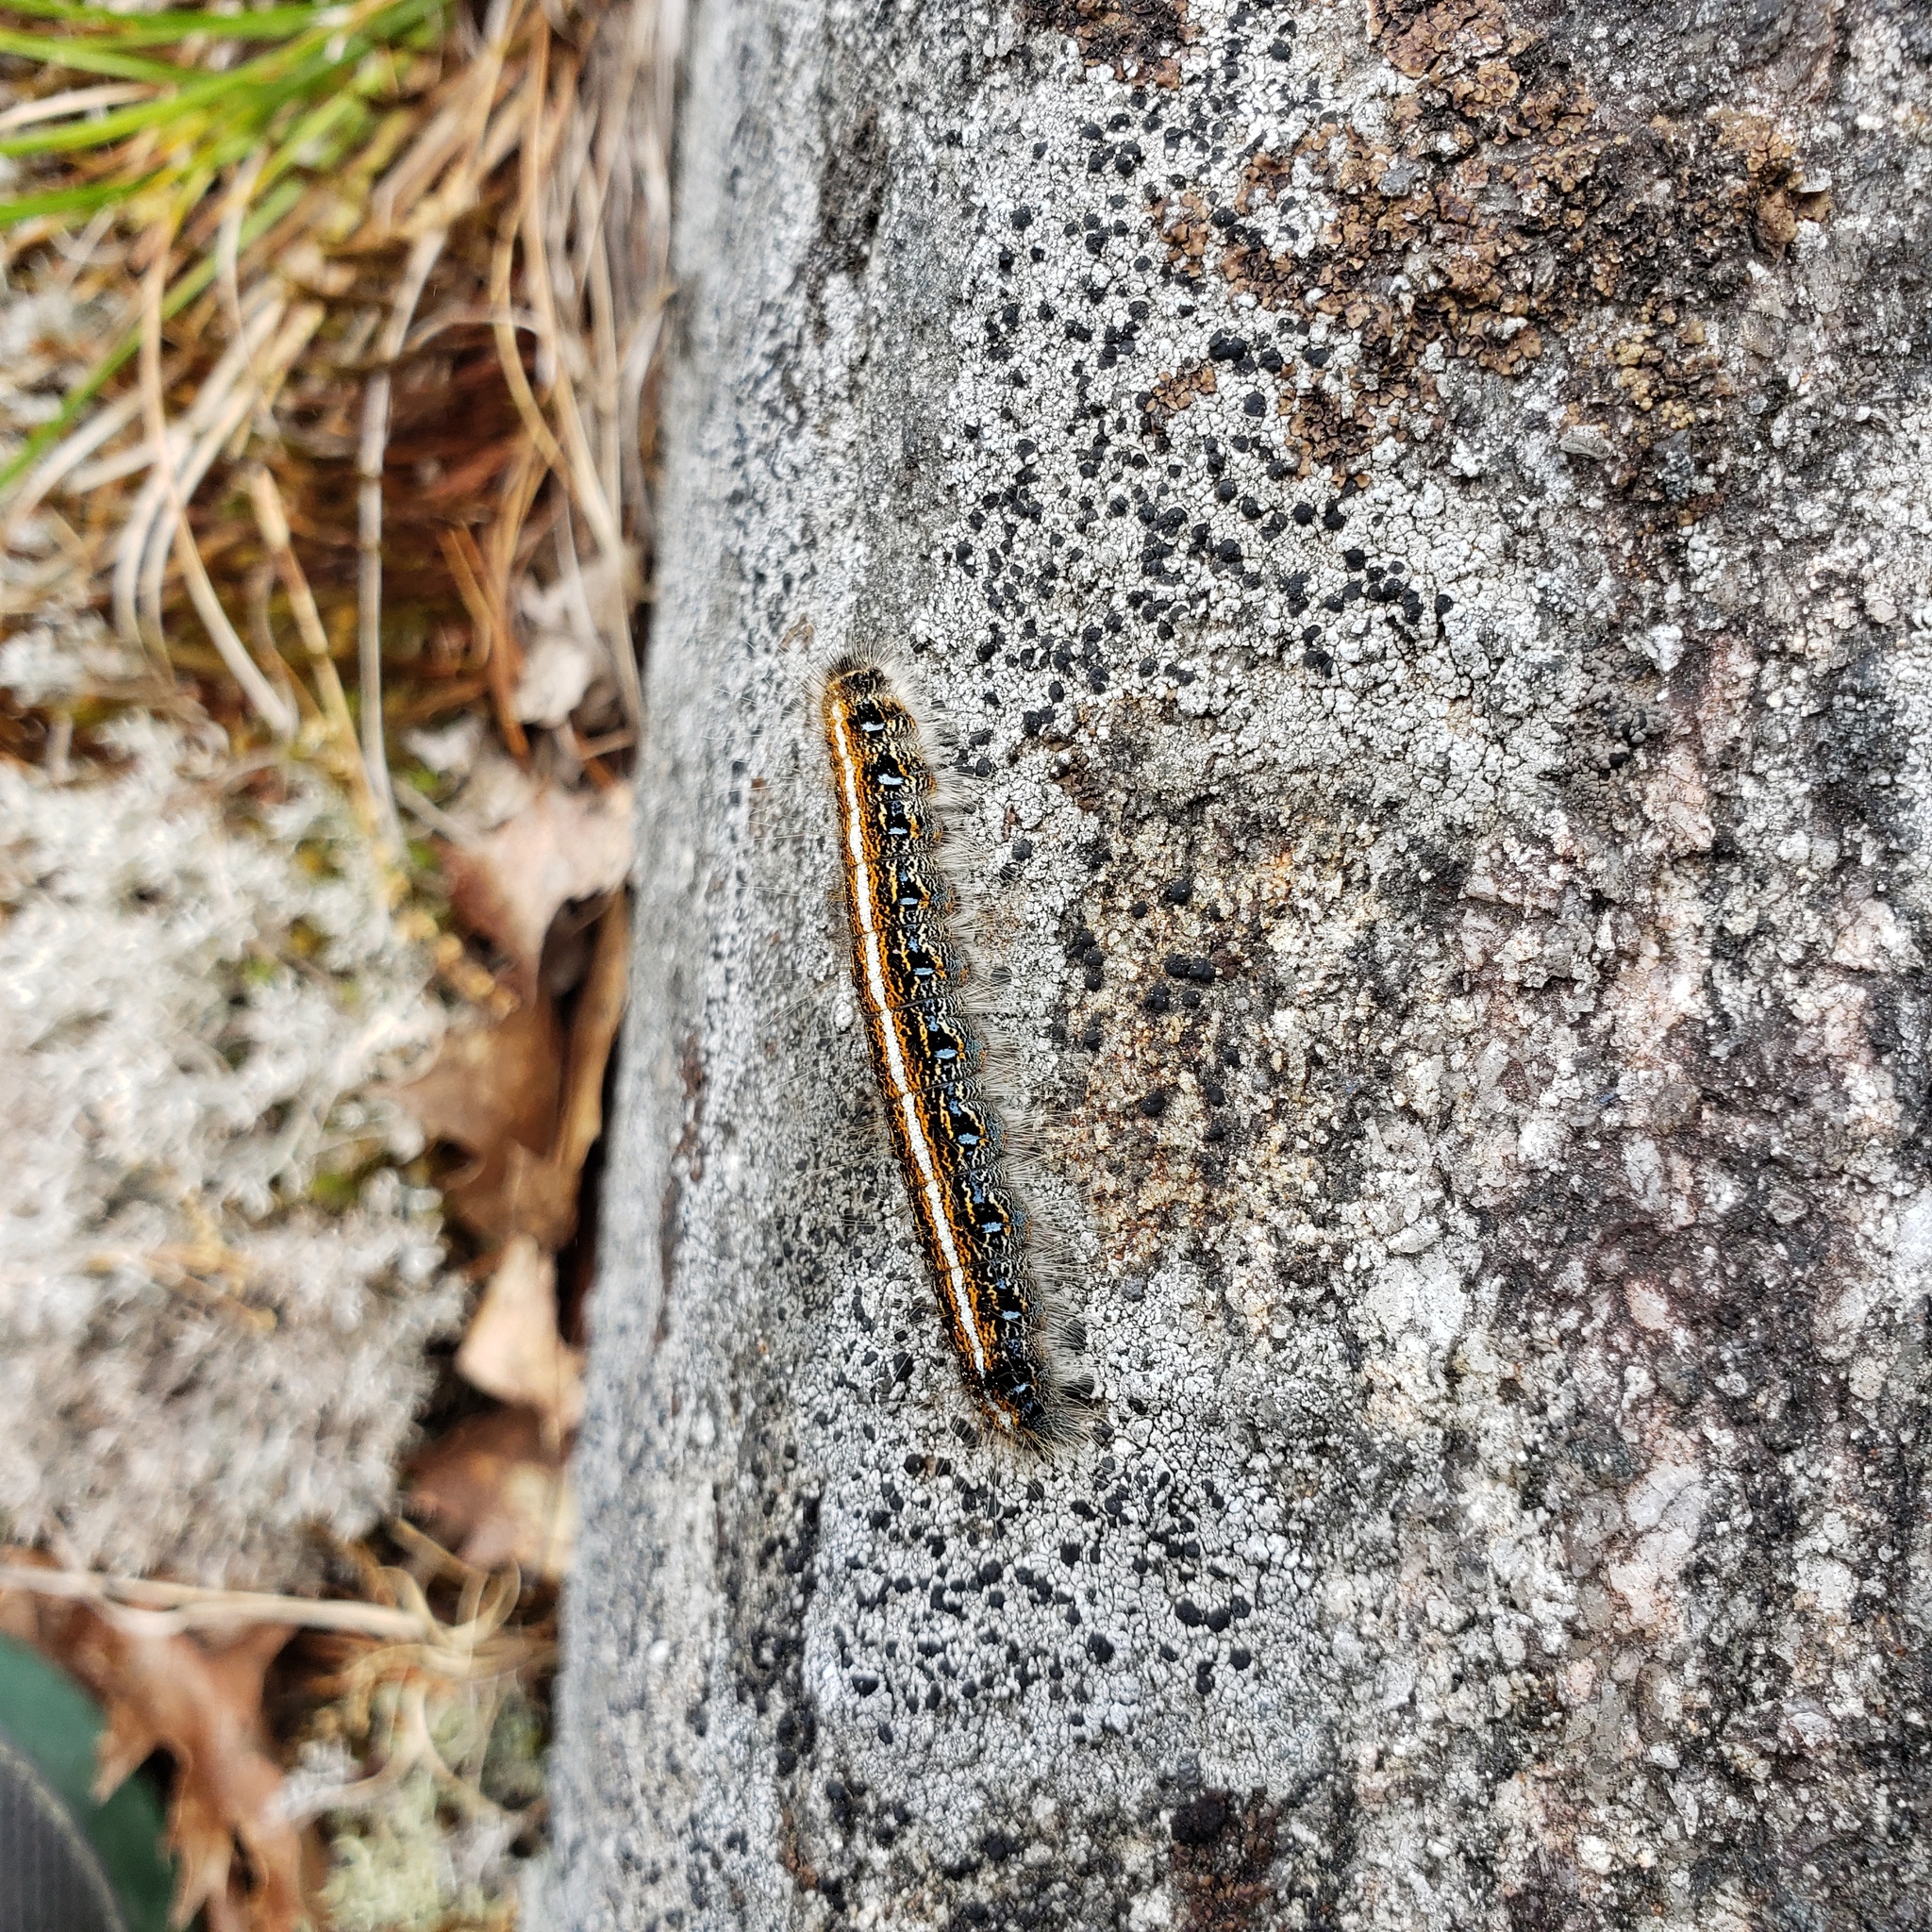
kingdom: Animalia
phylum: Arthropoda
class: Insecta
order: Lepidoptera
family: Lasiocampidae
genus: Malacosoma
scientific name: Malacosoma americana
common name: Eastern tent caterpillar moth
